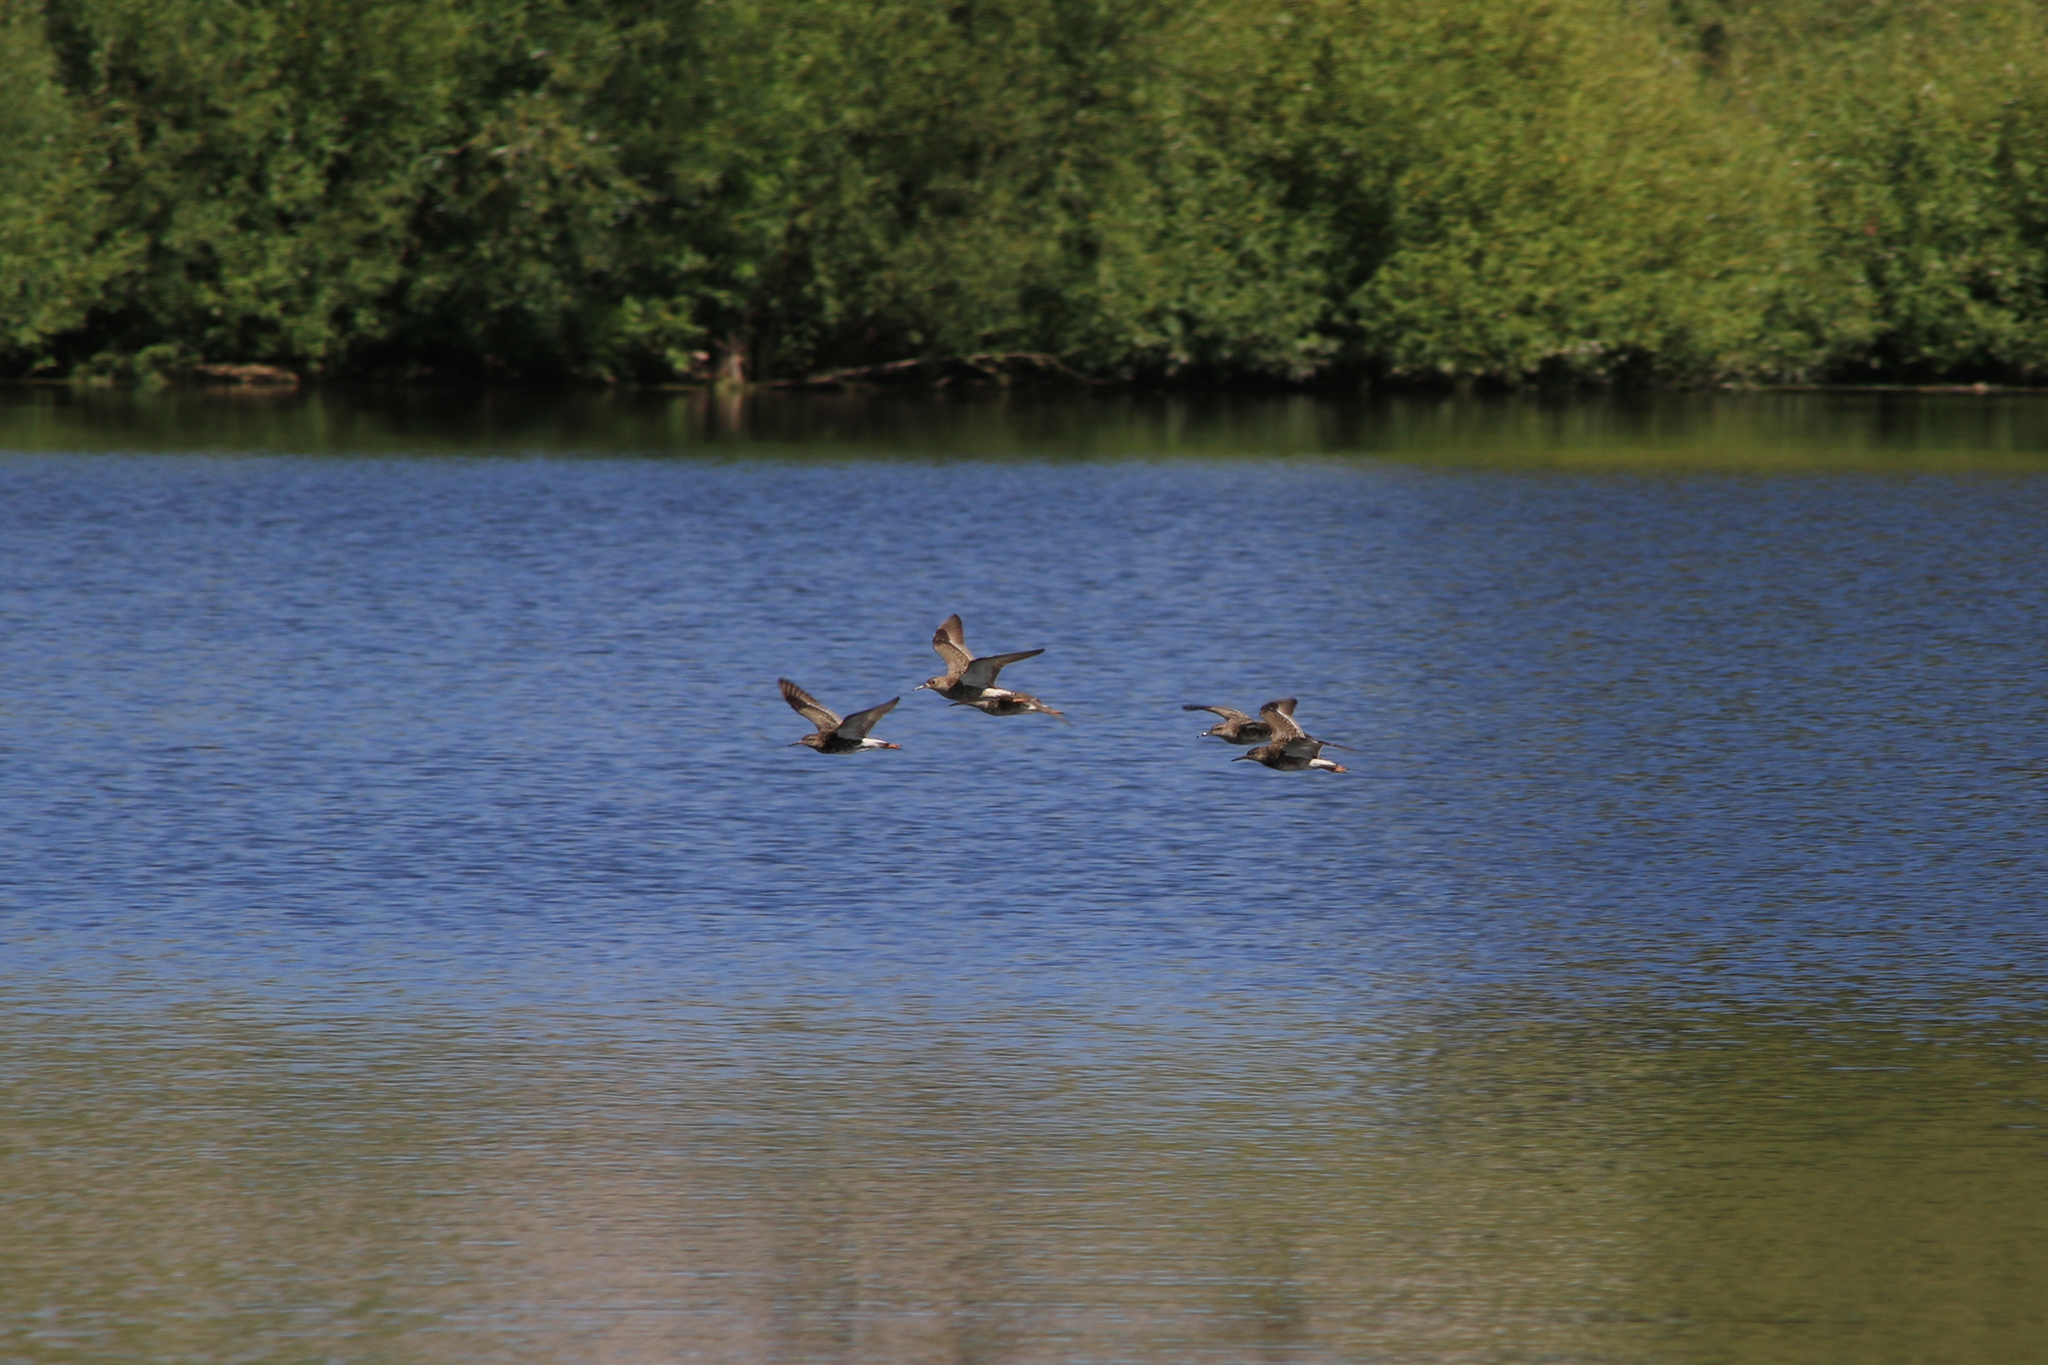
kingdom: Animalia
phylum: Chordata
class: Aves
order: Charadriiformes
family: Scolopacidae
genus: Calidris
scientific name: Calidris pugnax
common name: Ruff
